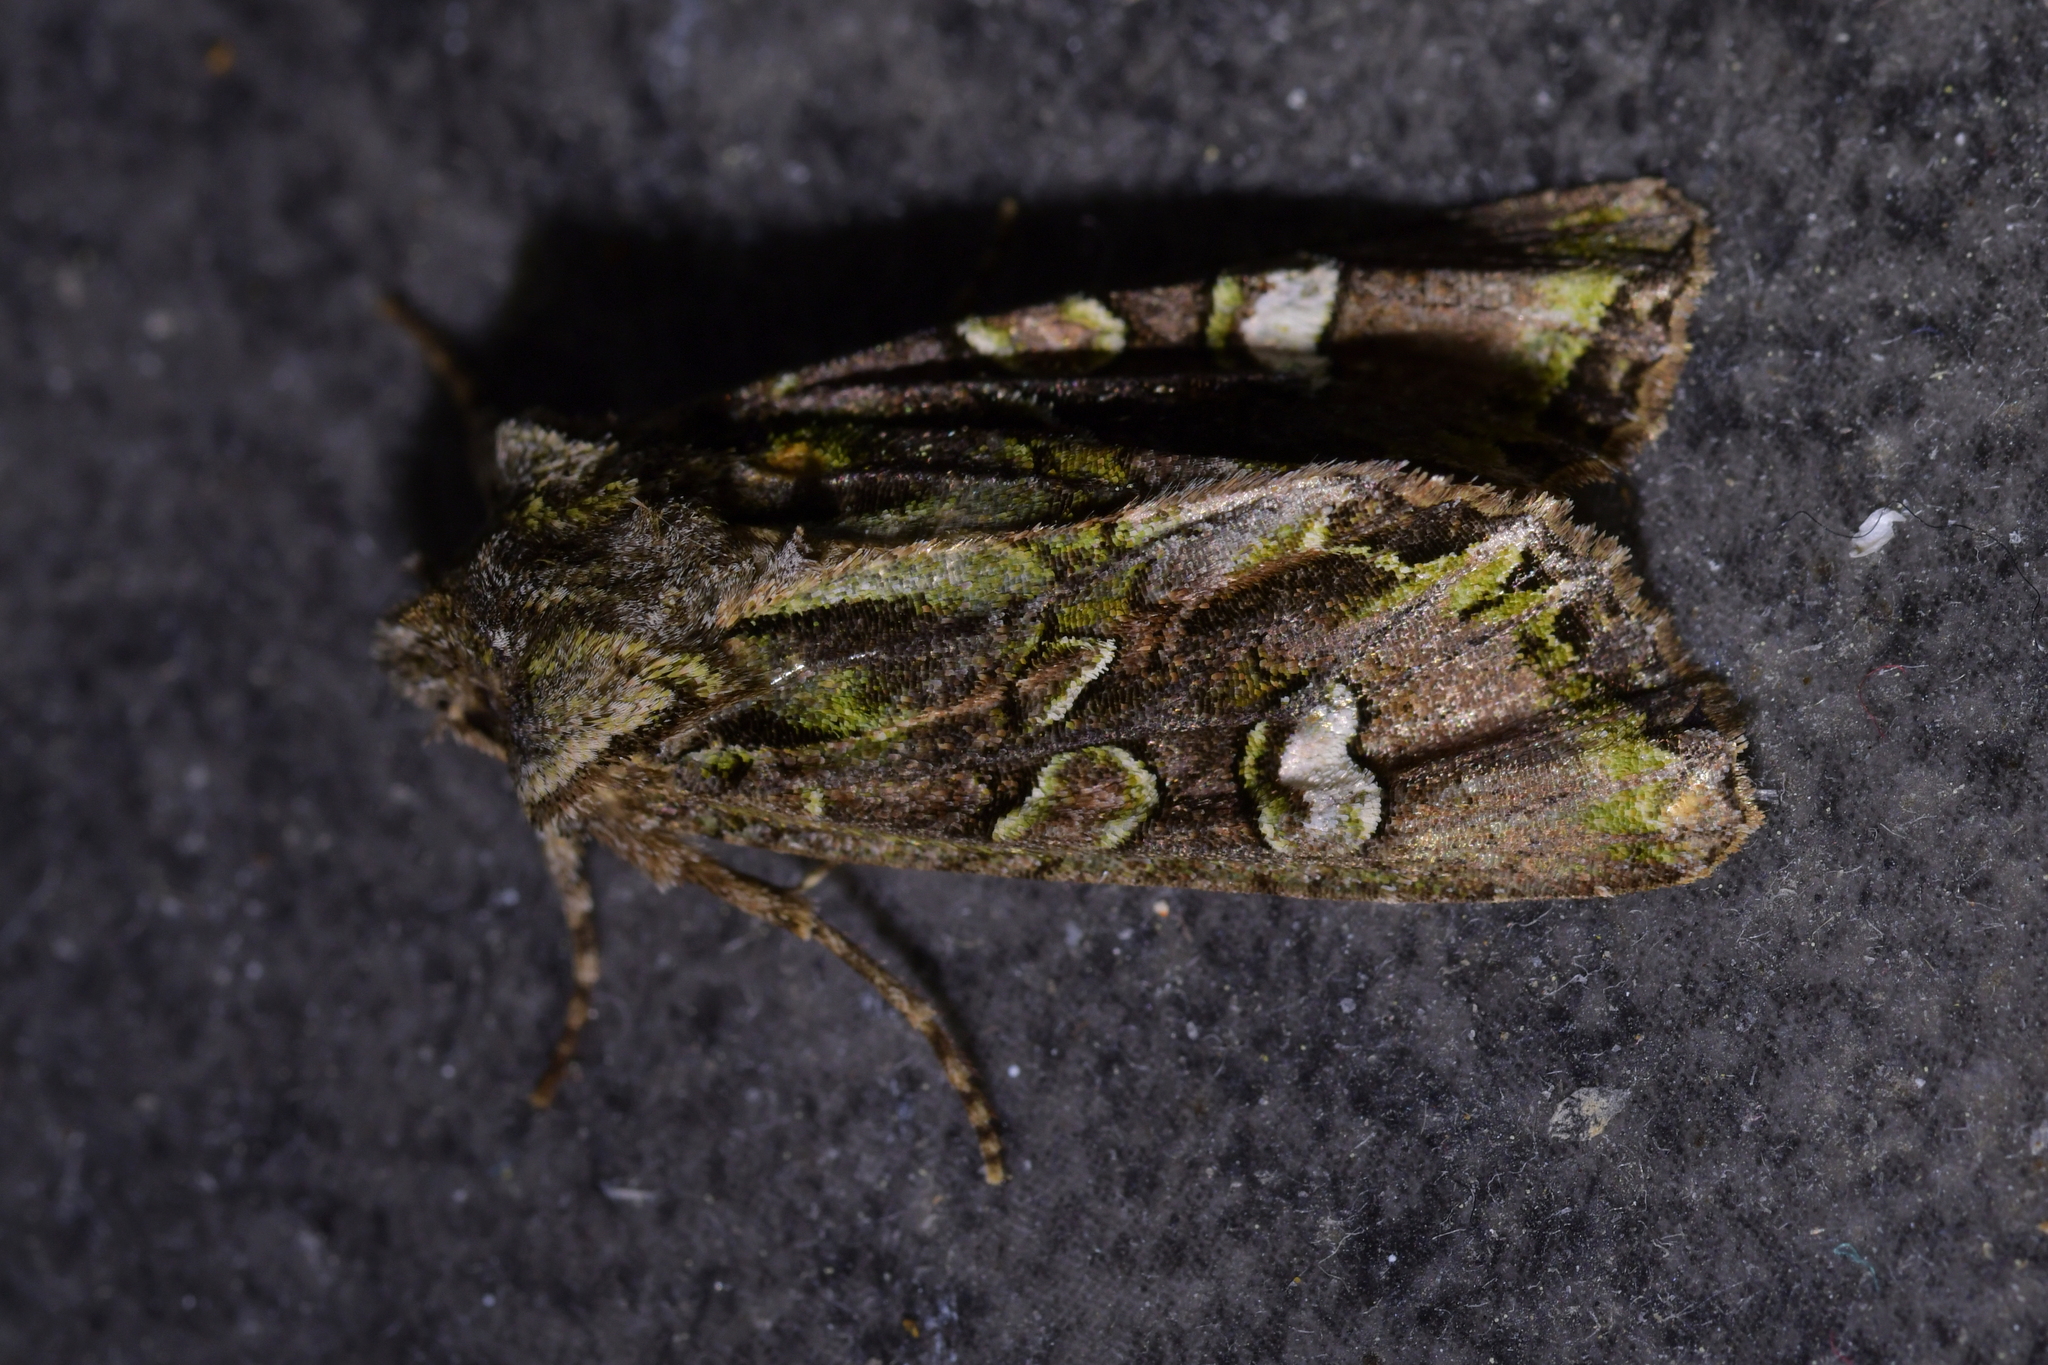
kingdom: Animalia
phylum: Arthropoda
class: Insecta
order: Lepidoptera
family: Noctuidae
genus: Ichneutica
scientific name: Ichneutica insignis
